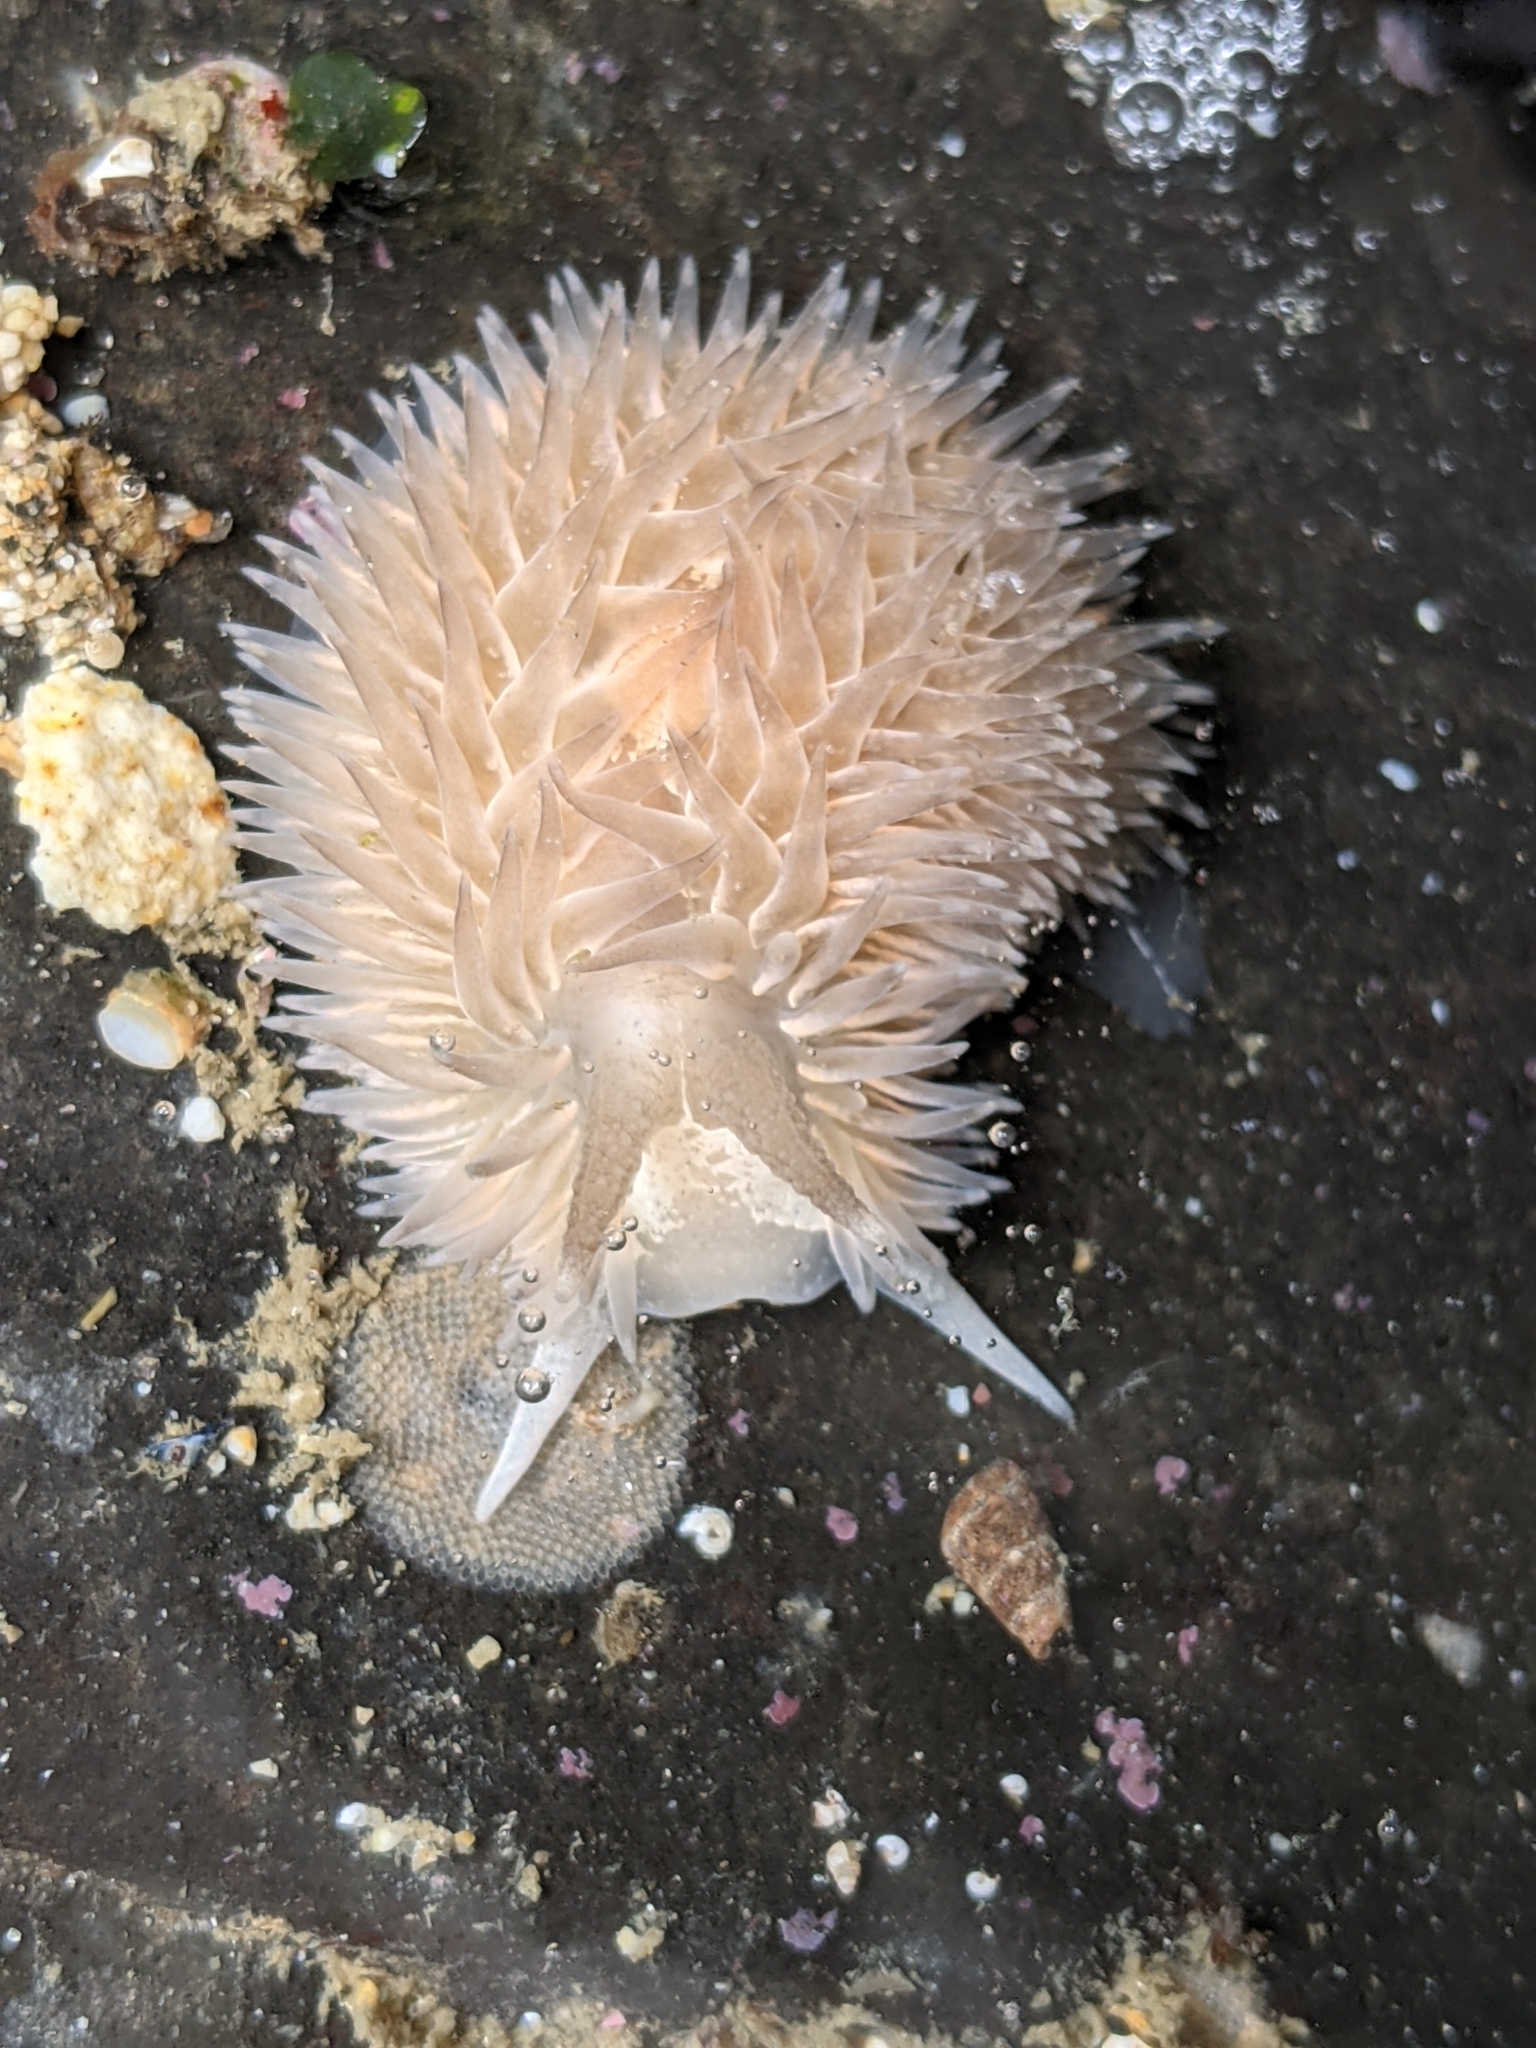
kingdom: Animalia
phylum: Mollusca
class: Gastropoda
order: Nudibranchia
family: Aeolidiidae
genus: Aeolidia
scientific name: Aeolidia loui
